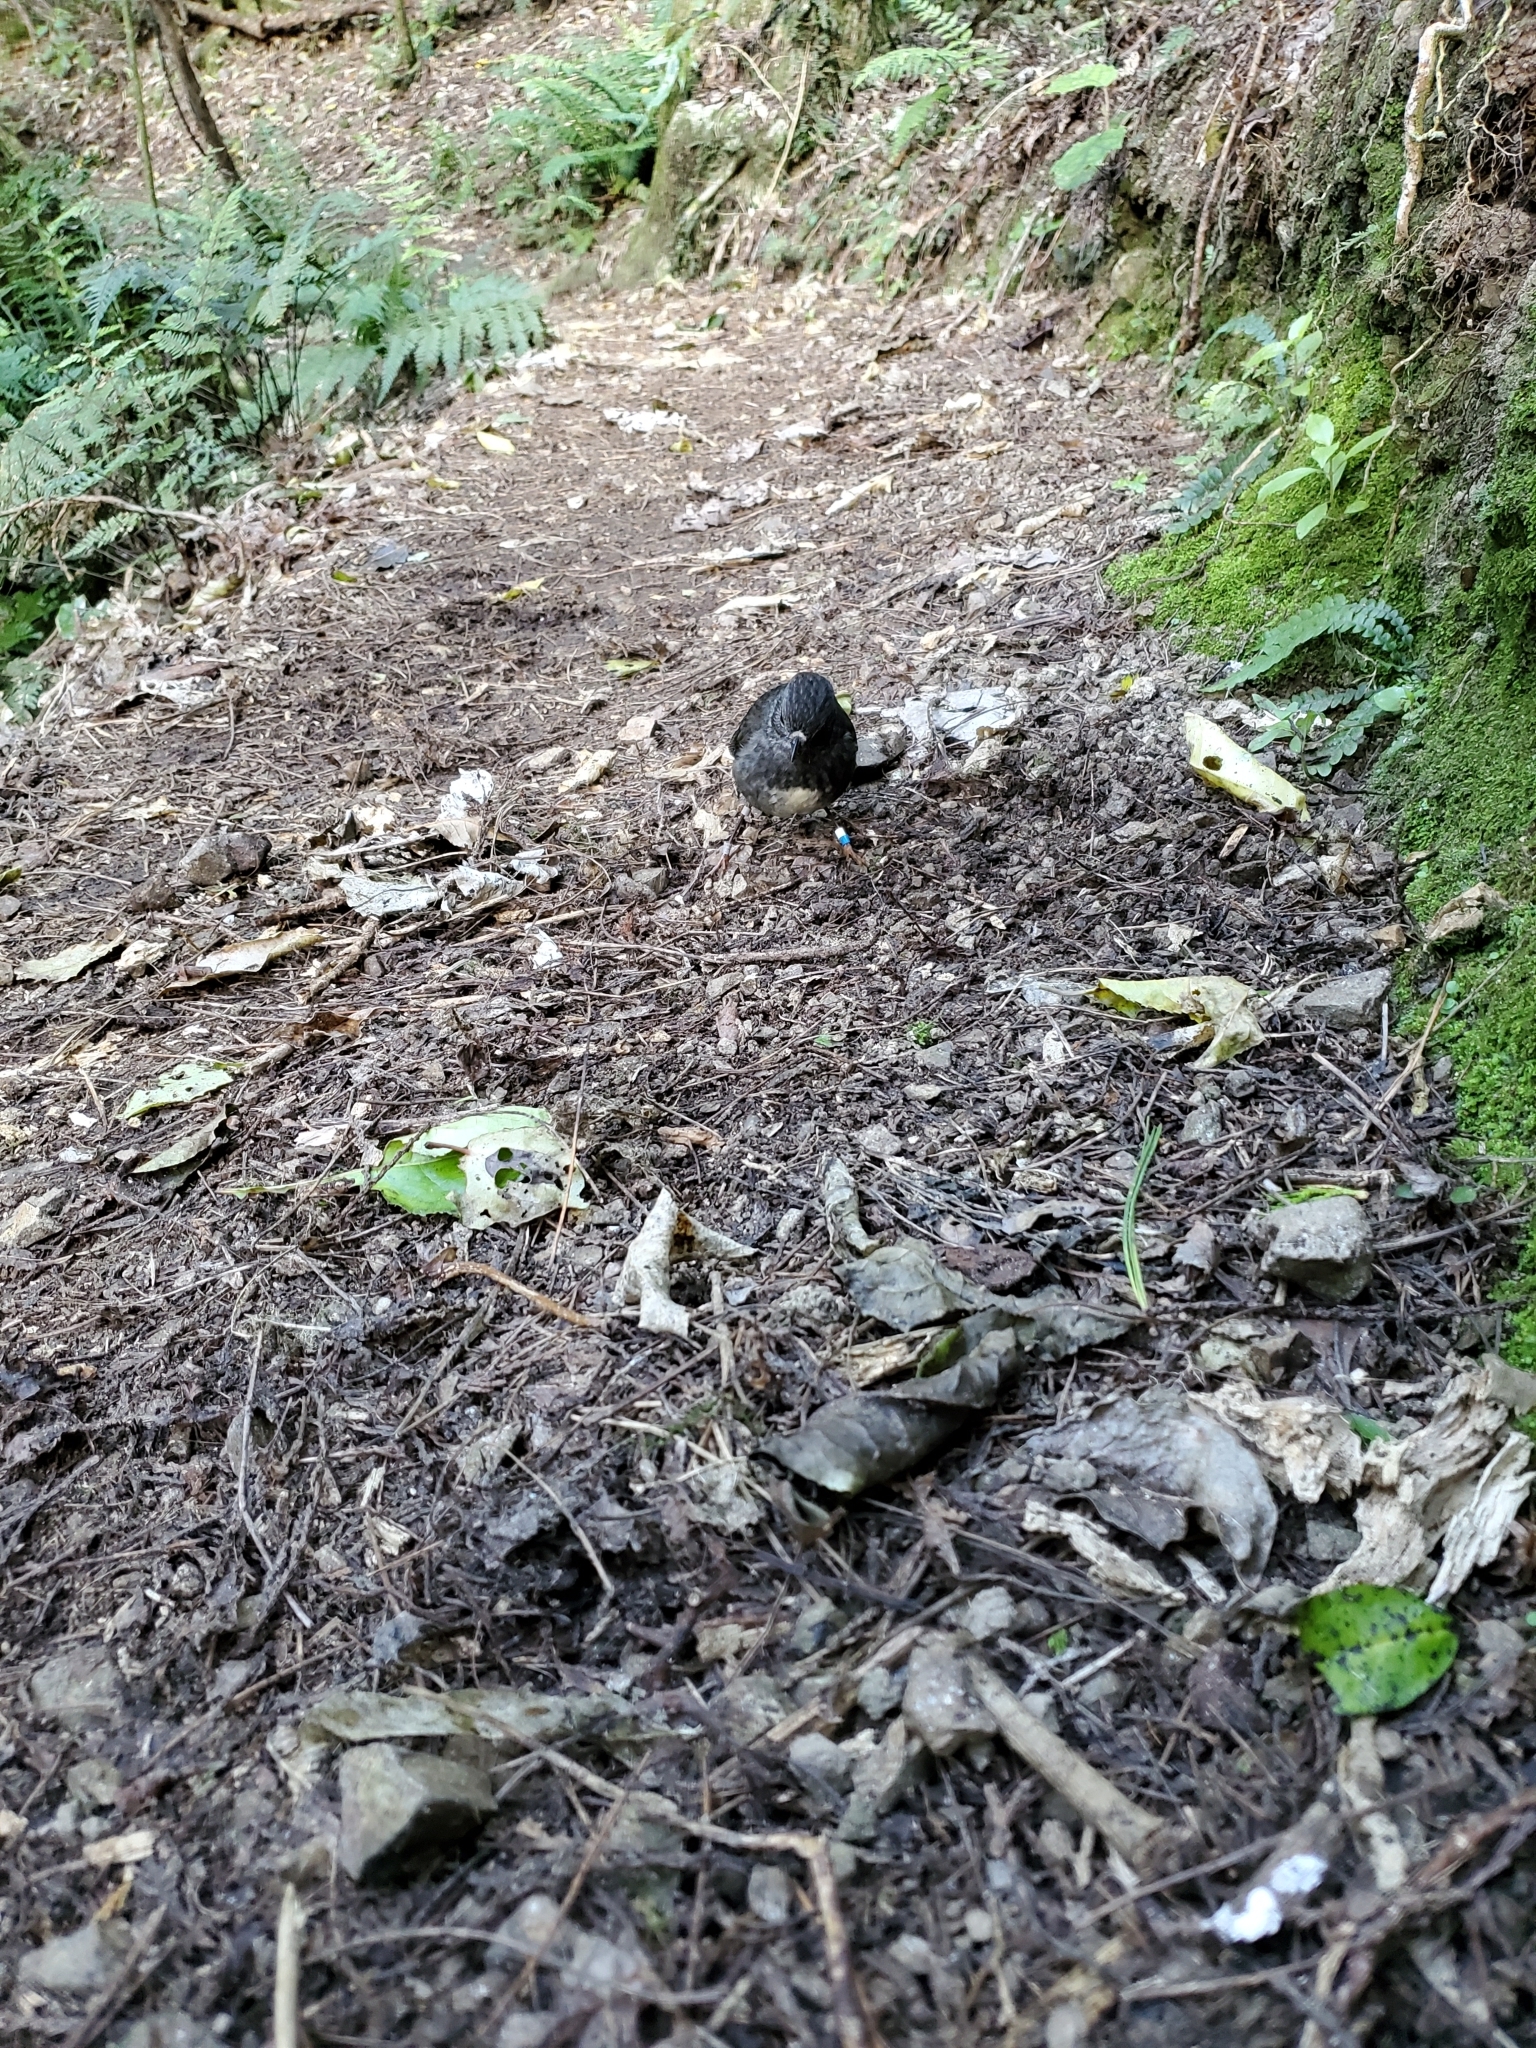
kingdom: Animalia
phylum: Chordata
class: Aves
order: Passeriformes
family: Petroicidae
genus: Petroica
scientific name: Petroica australis
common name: New zealand robin
